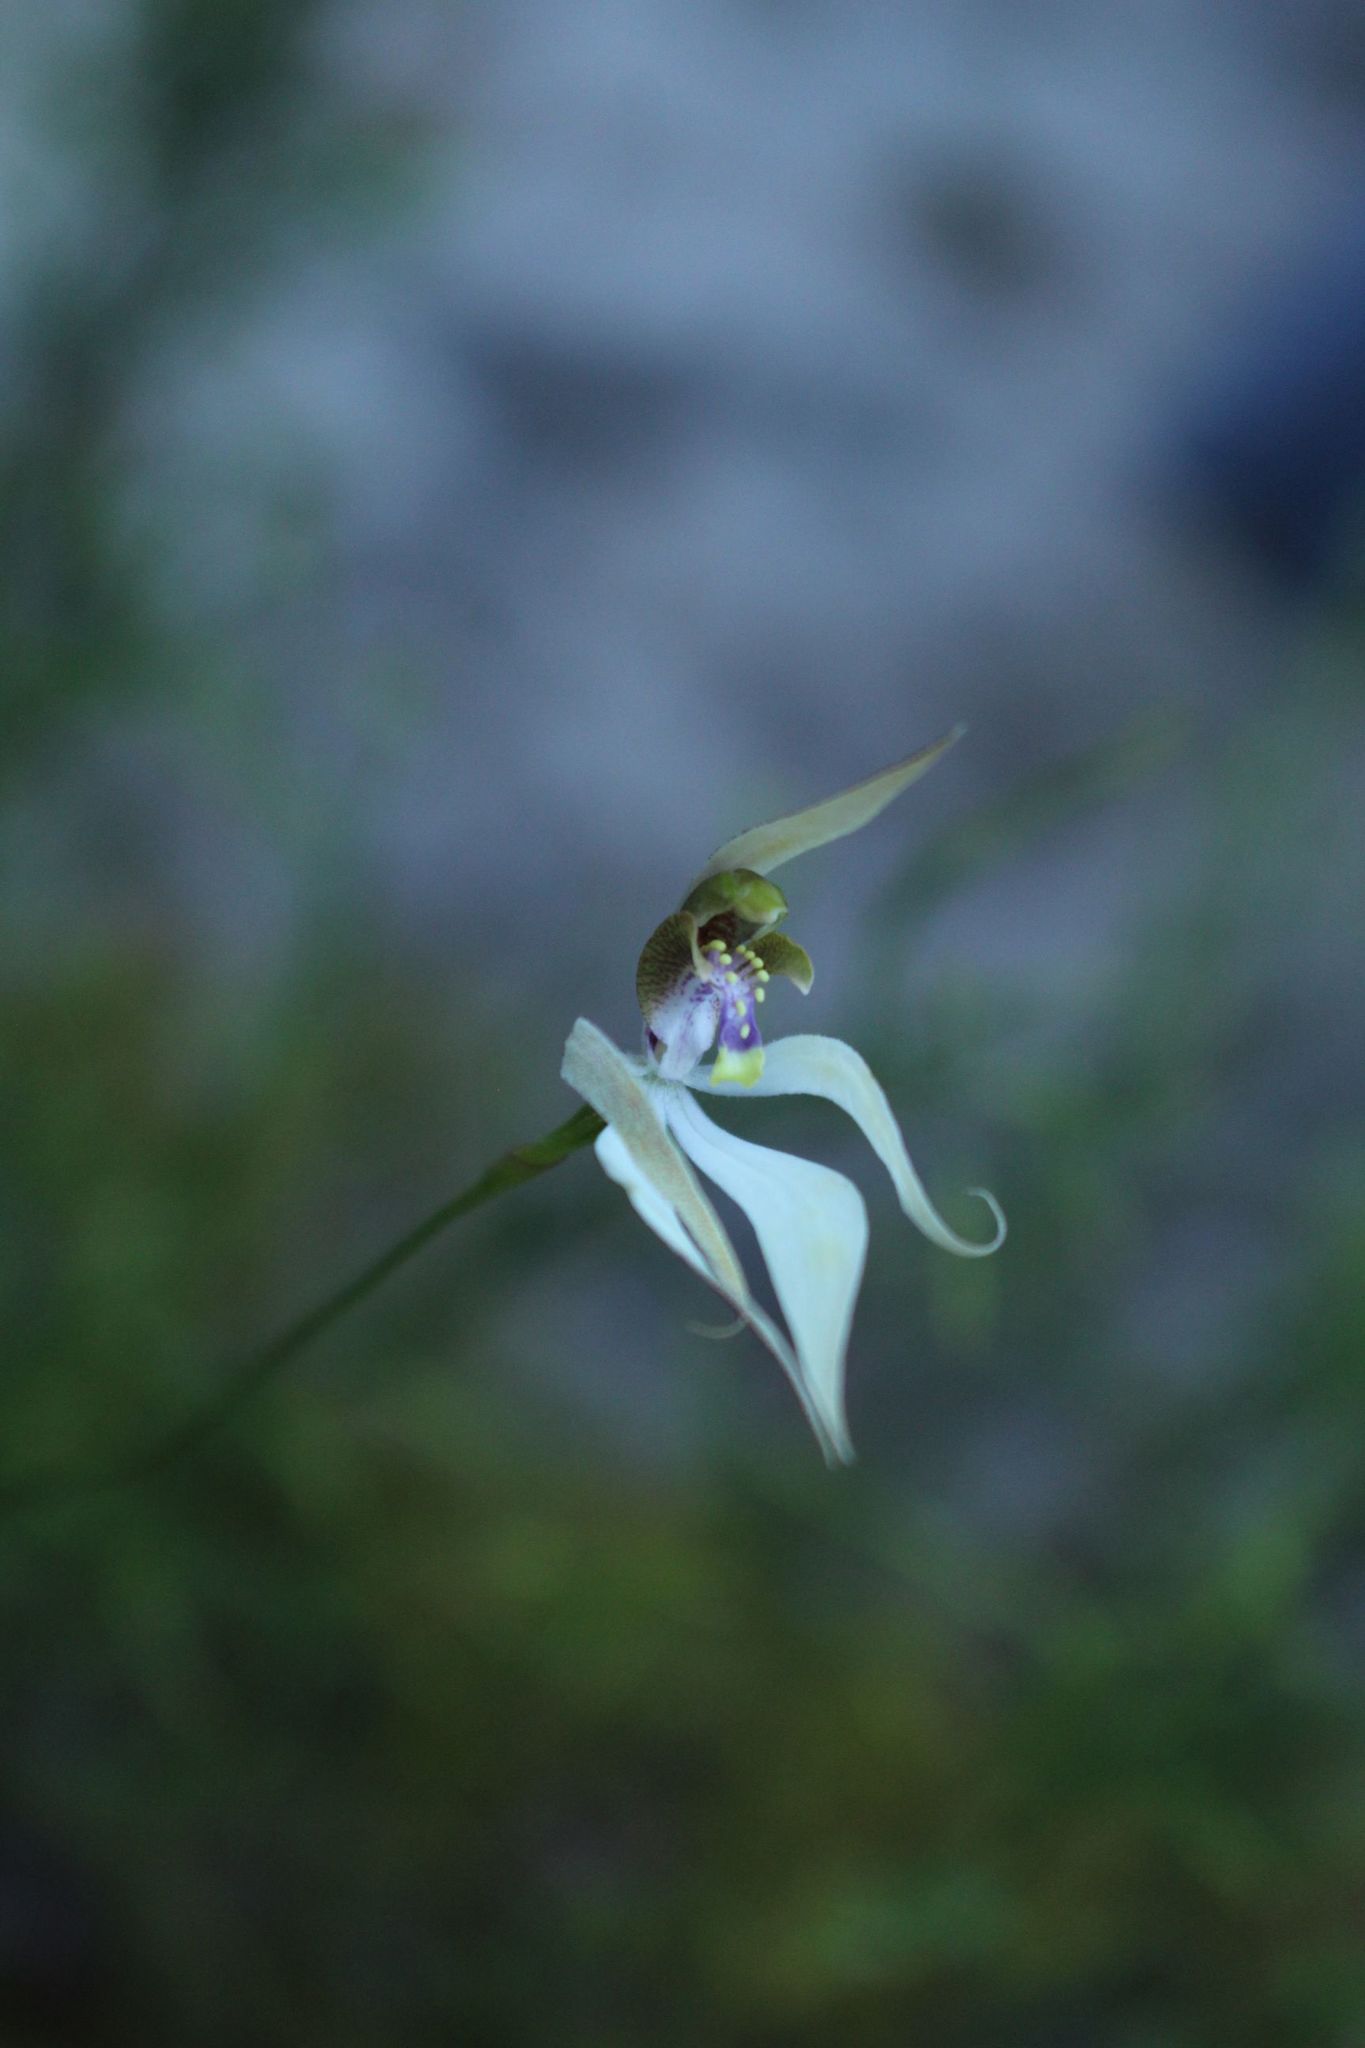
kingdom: Plantae
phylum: Tracheophyta
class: Liliopsida
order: Asparagales
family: Orchidaceae
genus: Praecoxanthus
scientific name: Praecoxanthus aphyllus
